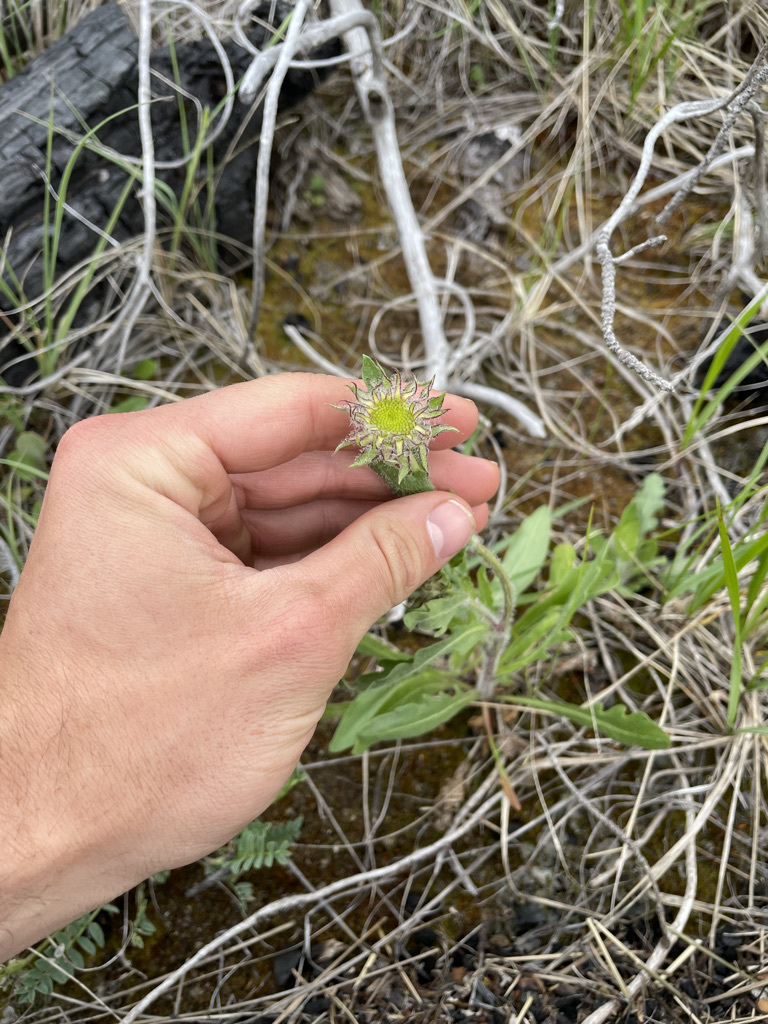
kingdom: Plantae
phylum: Tracheophyta
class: Magnoliopsida
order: Asterales
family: Asteraceae
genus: Gaillardia
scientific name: Gaillardia aristata
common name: Blanket-flower
